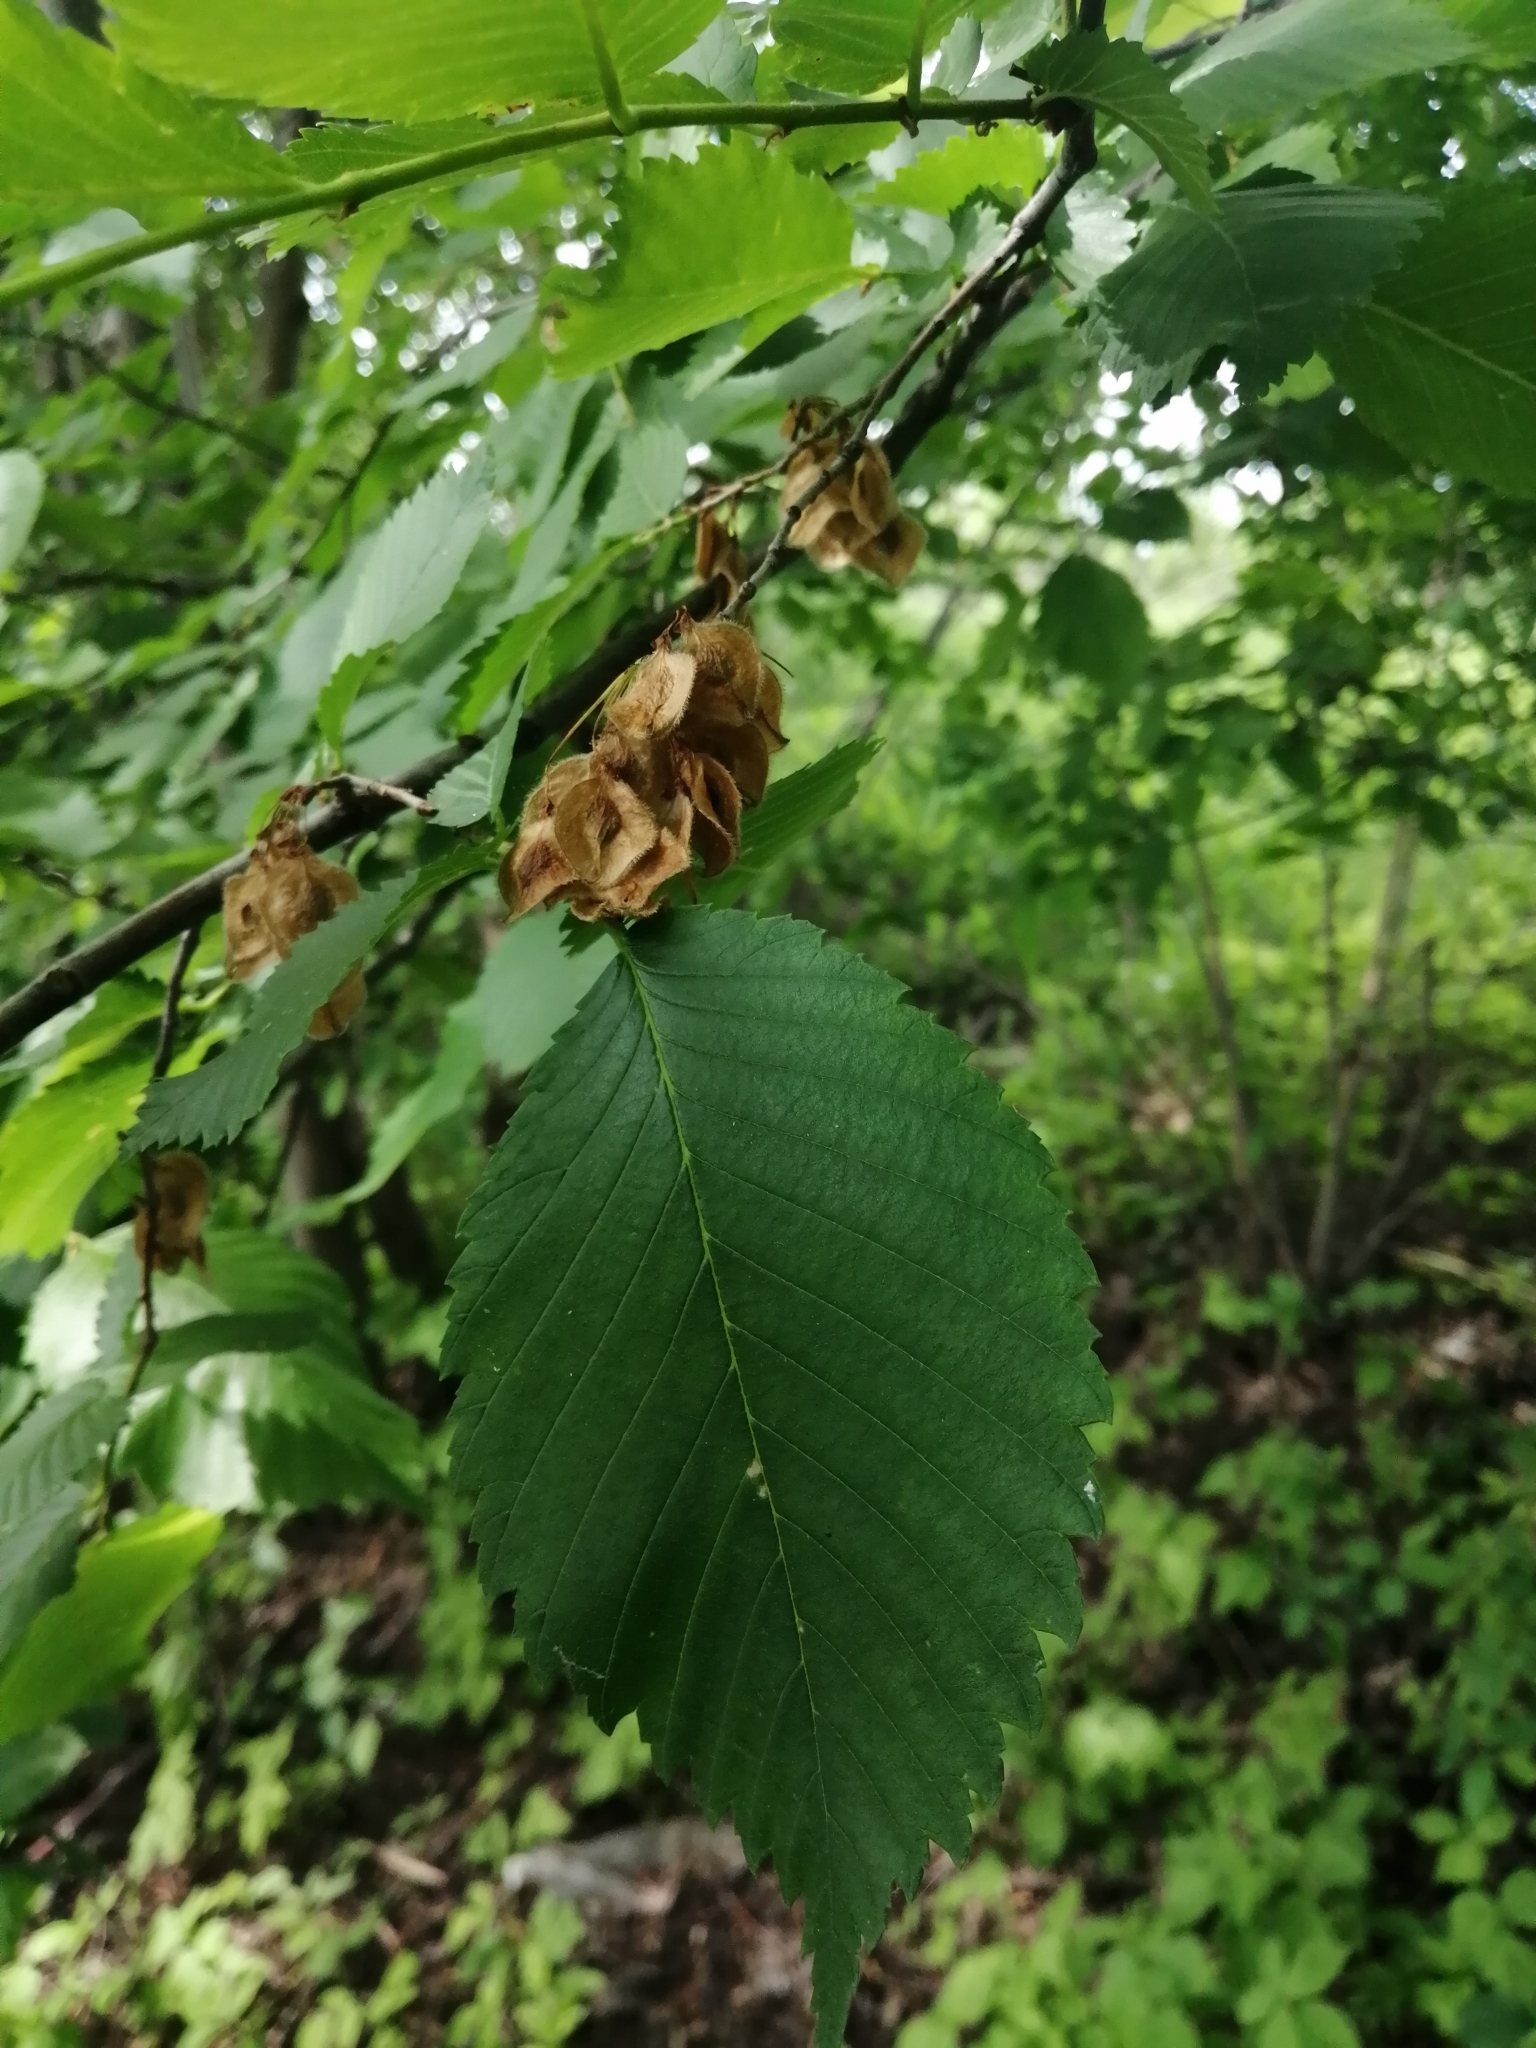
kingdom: Plantae
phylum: Tracheophyta
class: Magnoliopsida
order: Rosales
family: Ulmaceae
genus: Ulmus
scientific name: Ulmus laevis
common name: European white-elm
